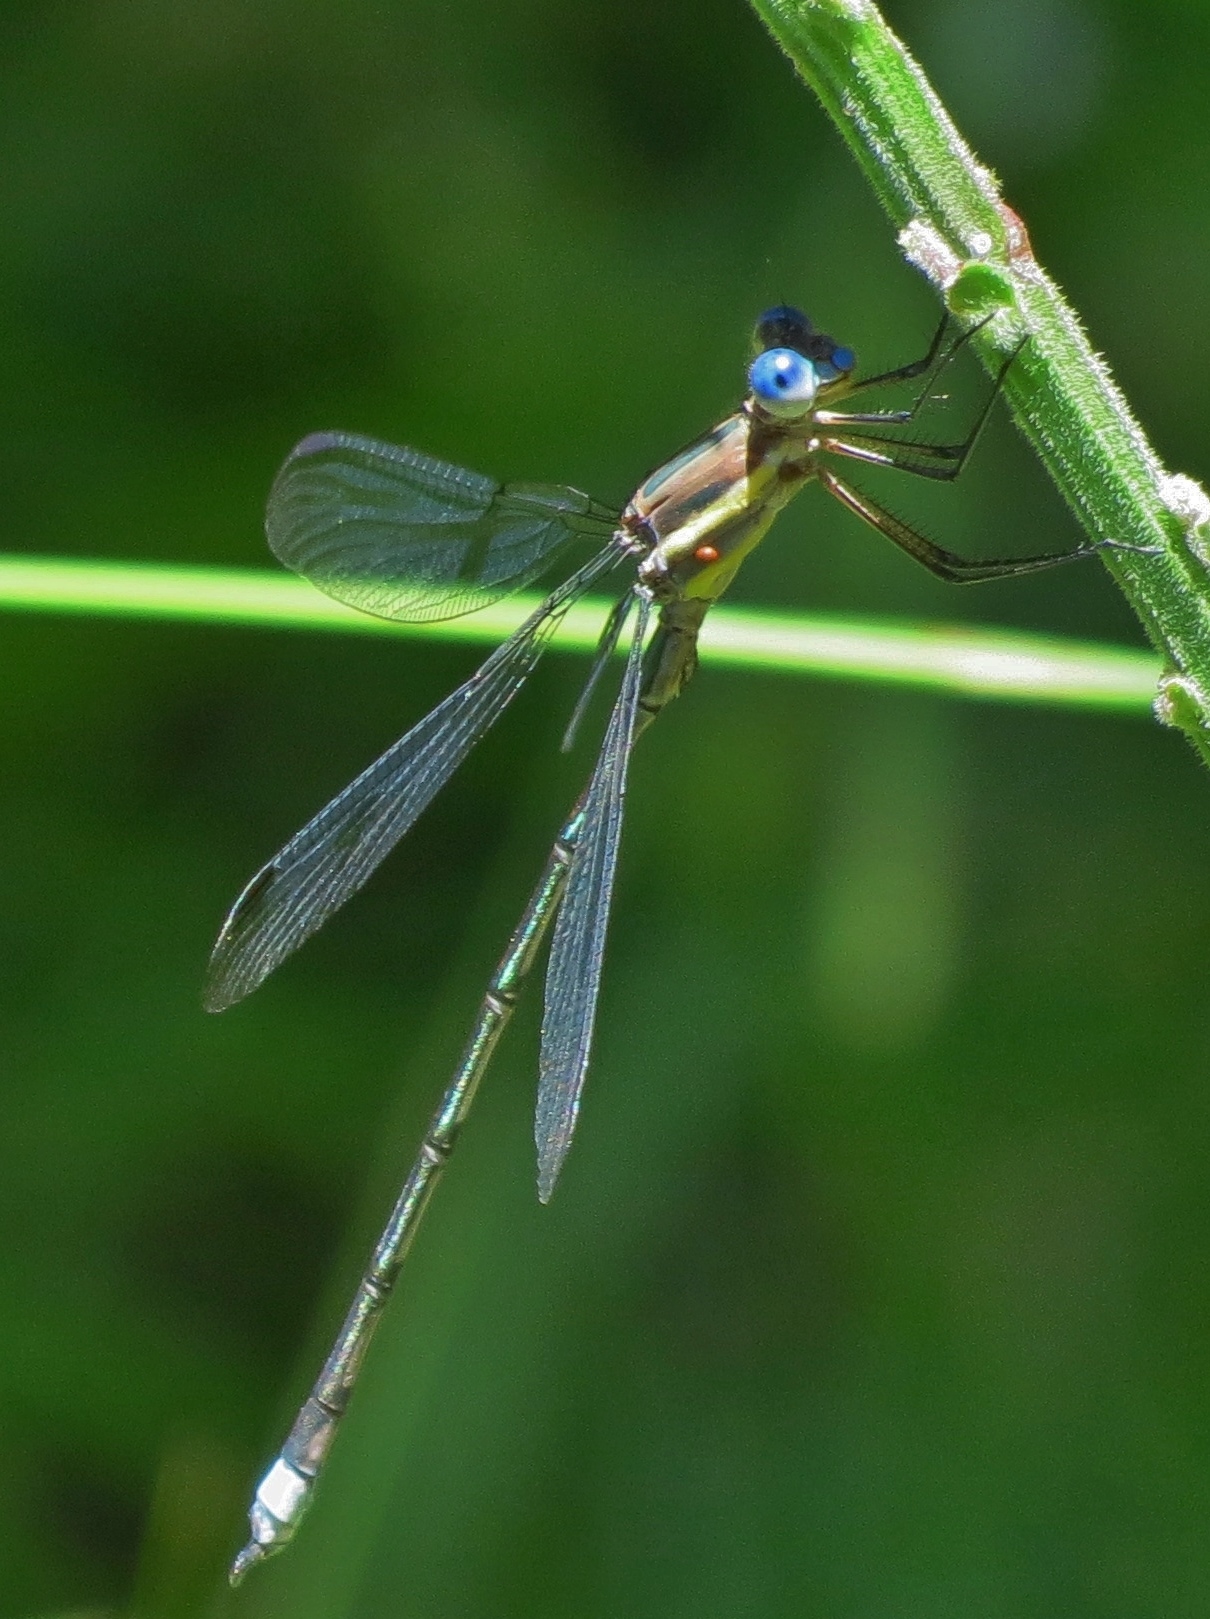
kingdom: Animalia
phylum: Arthropoda
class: Insecta
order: Odonata
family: Lestidae
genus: Archilestes
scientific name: Archilestes grandis
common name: Great spreadwing
